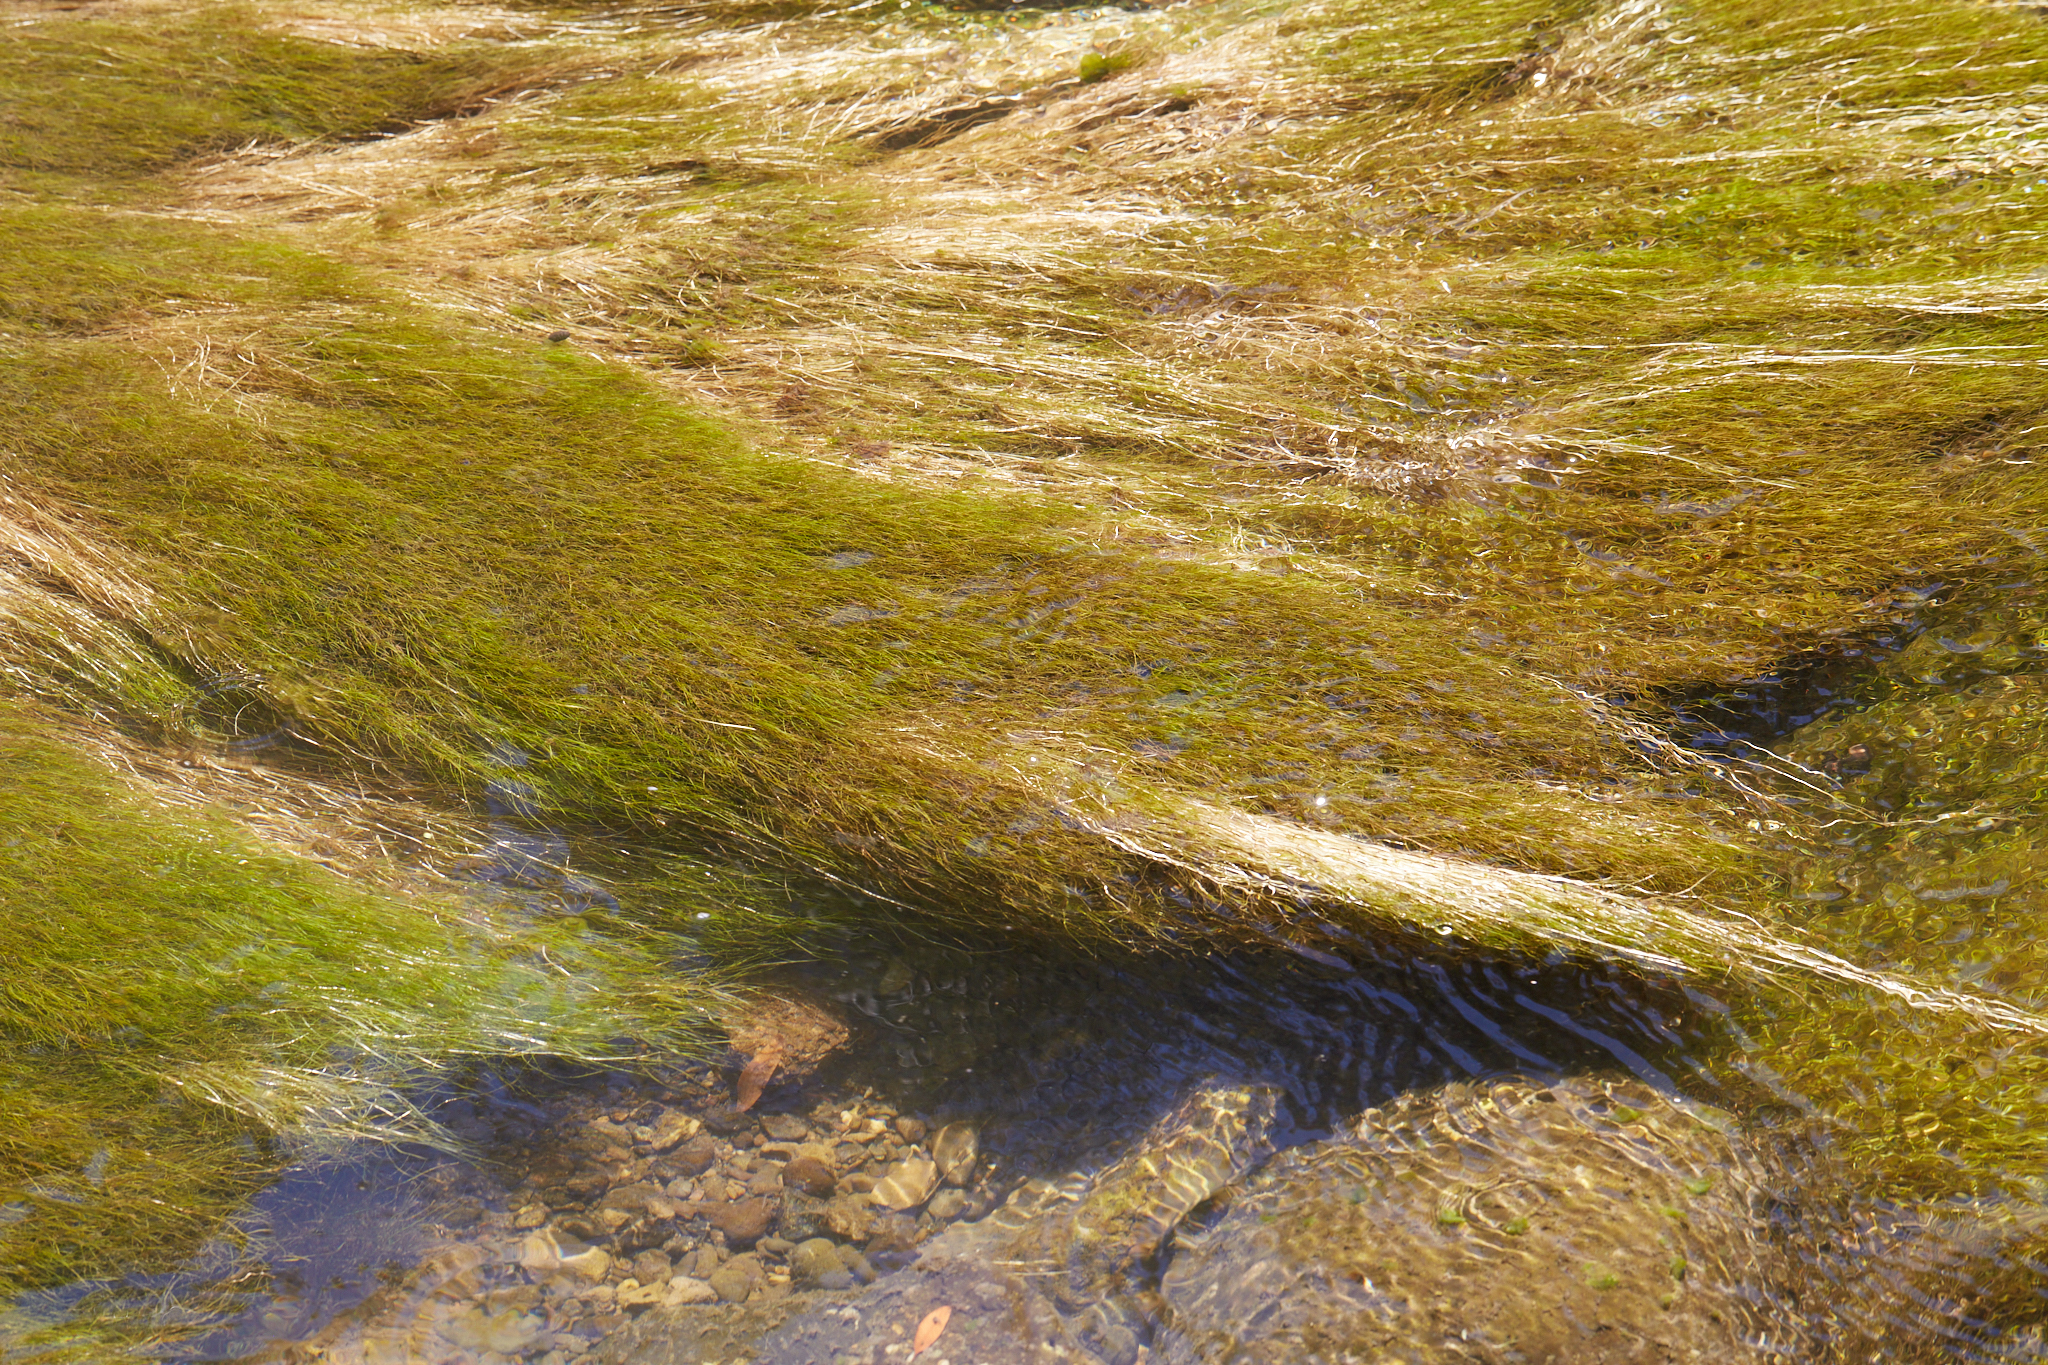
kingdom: Plantae
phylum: Tracheophyta
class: Liliopsida
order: Alismatales
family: Potamogetonaceae
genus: Zannichellia
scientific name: Zannichellia palustris
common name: Horned pondweed
